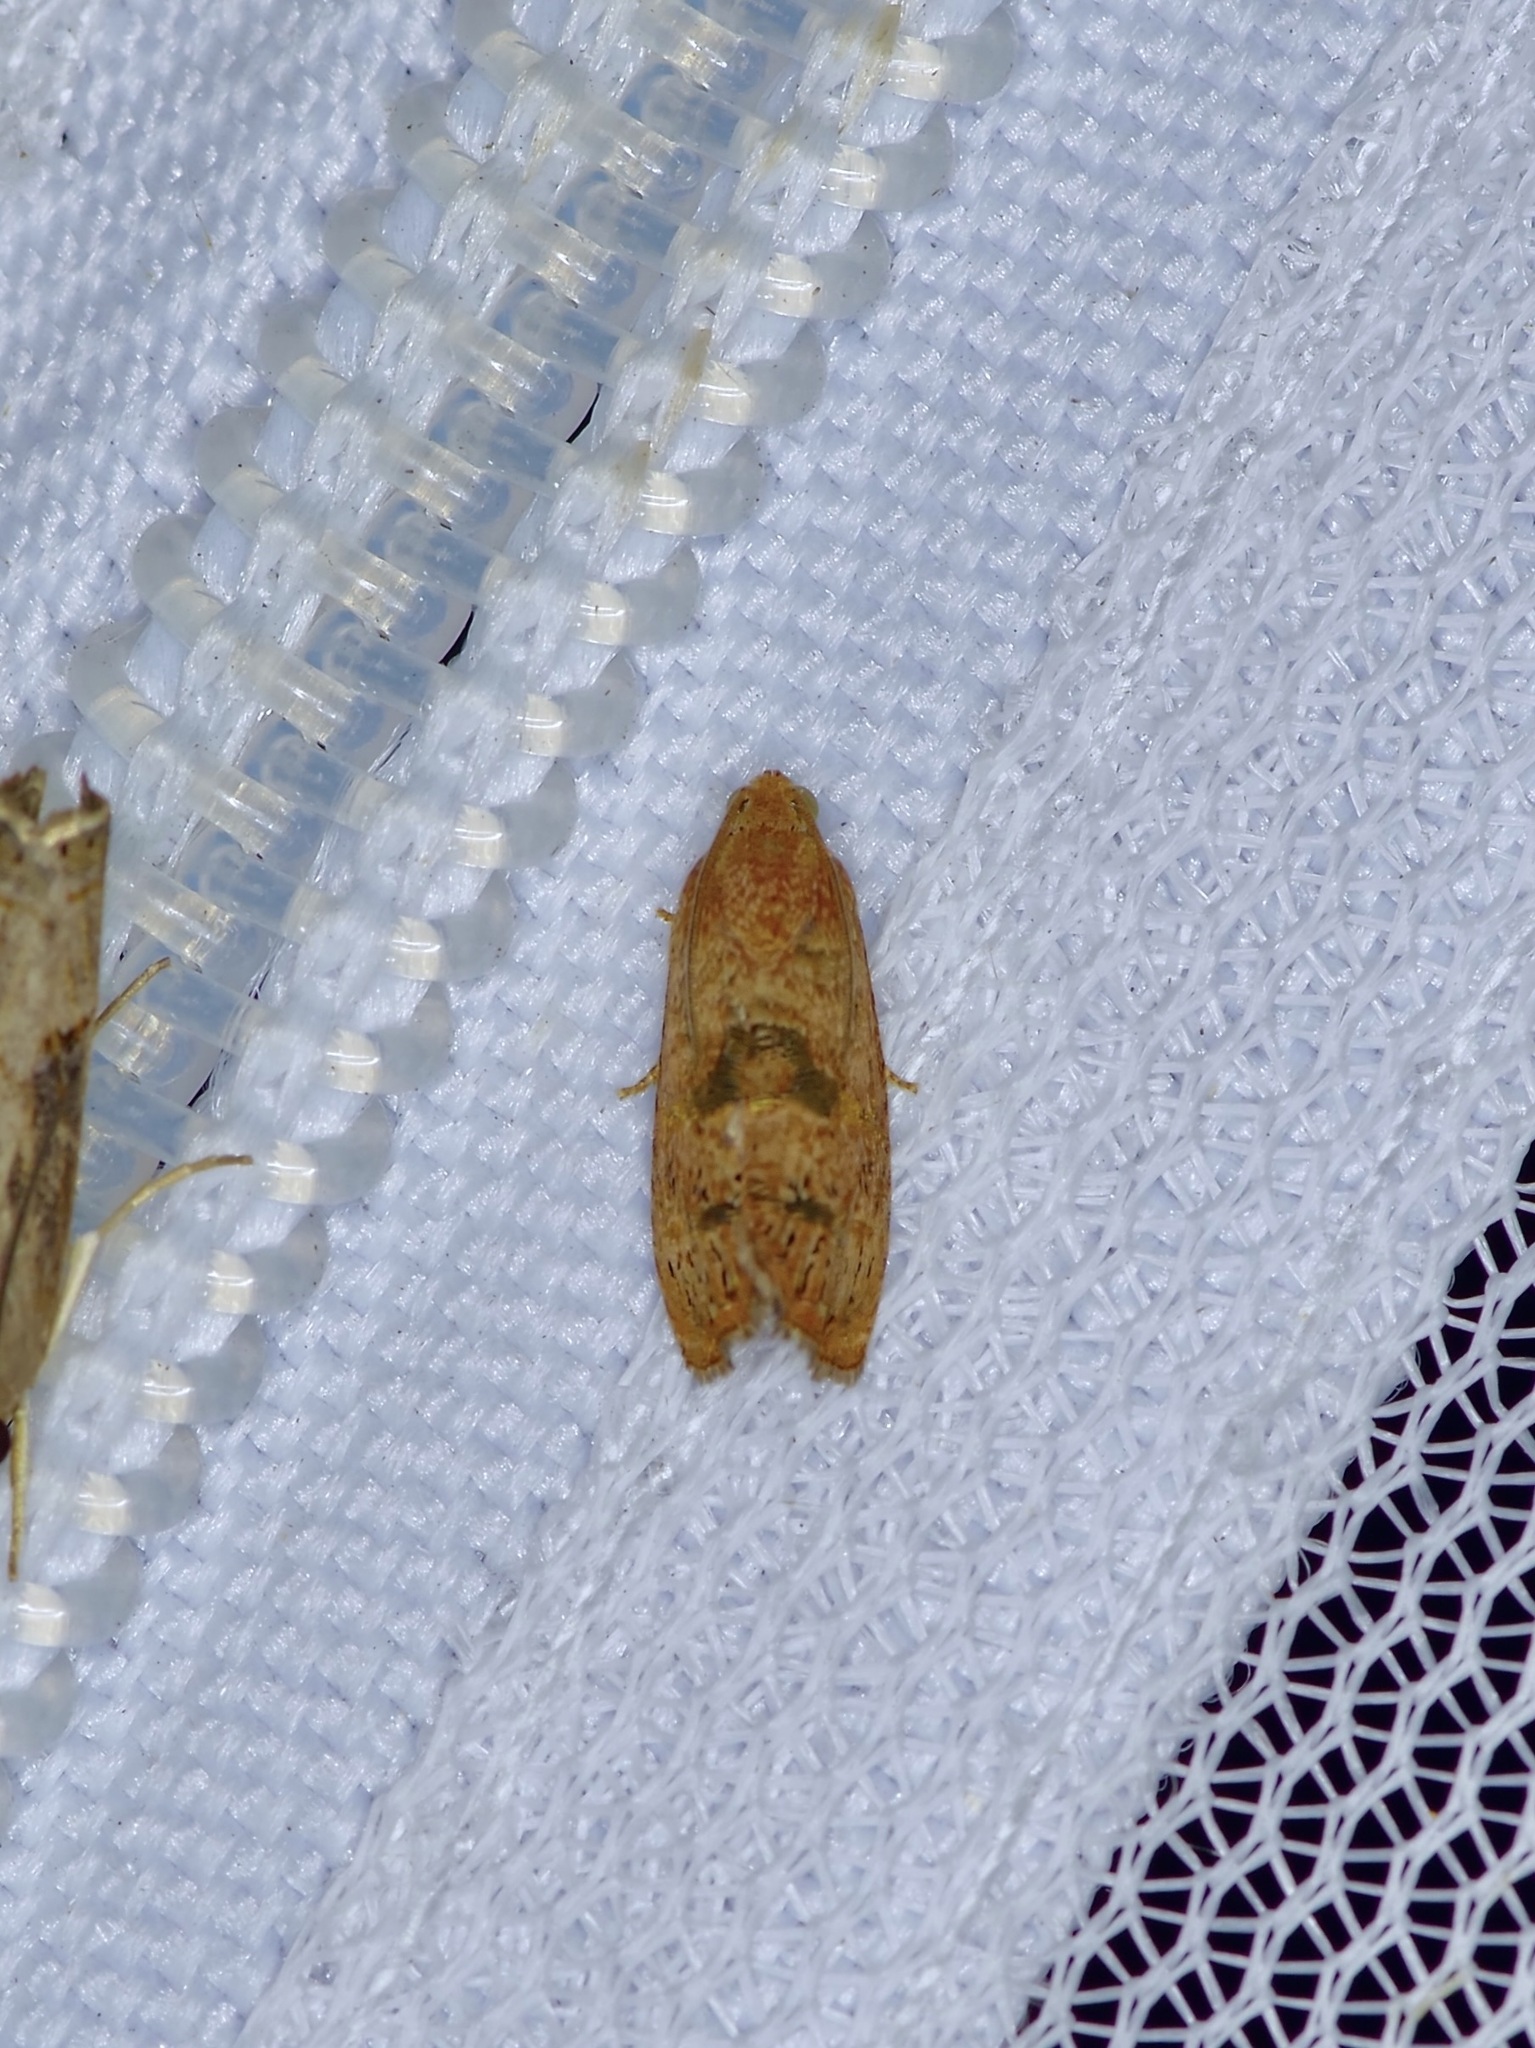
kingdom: Animalia
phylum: Arthropoda
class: Insecta
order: Lepidoptera
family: Tortricidae
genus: Cydia
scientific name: Cydia latiferreana
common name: Filbertworm moth
